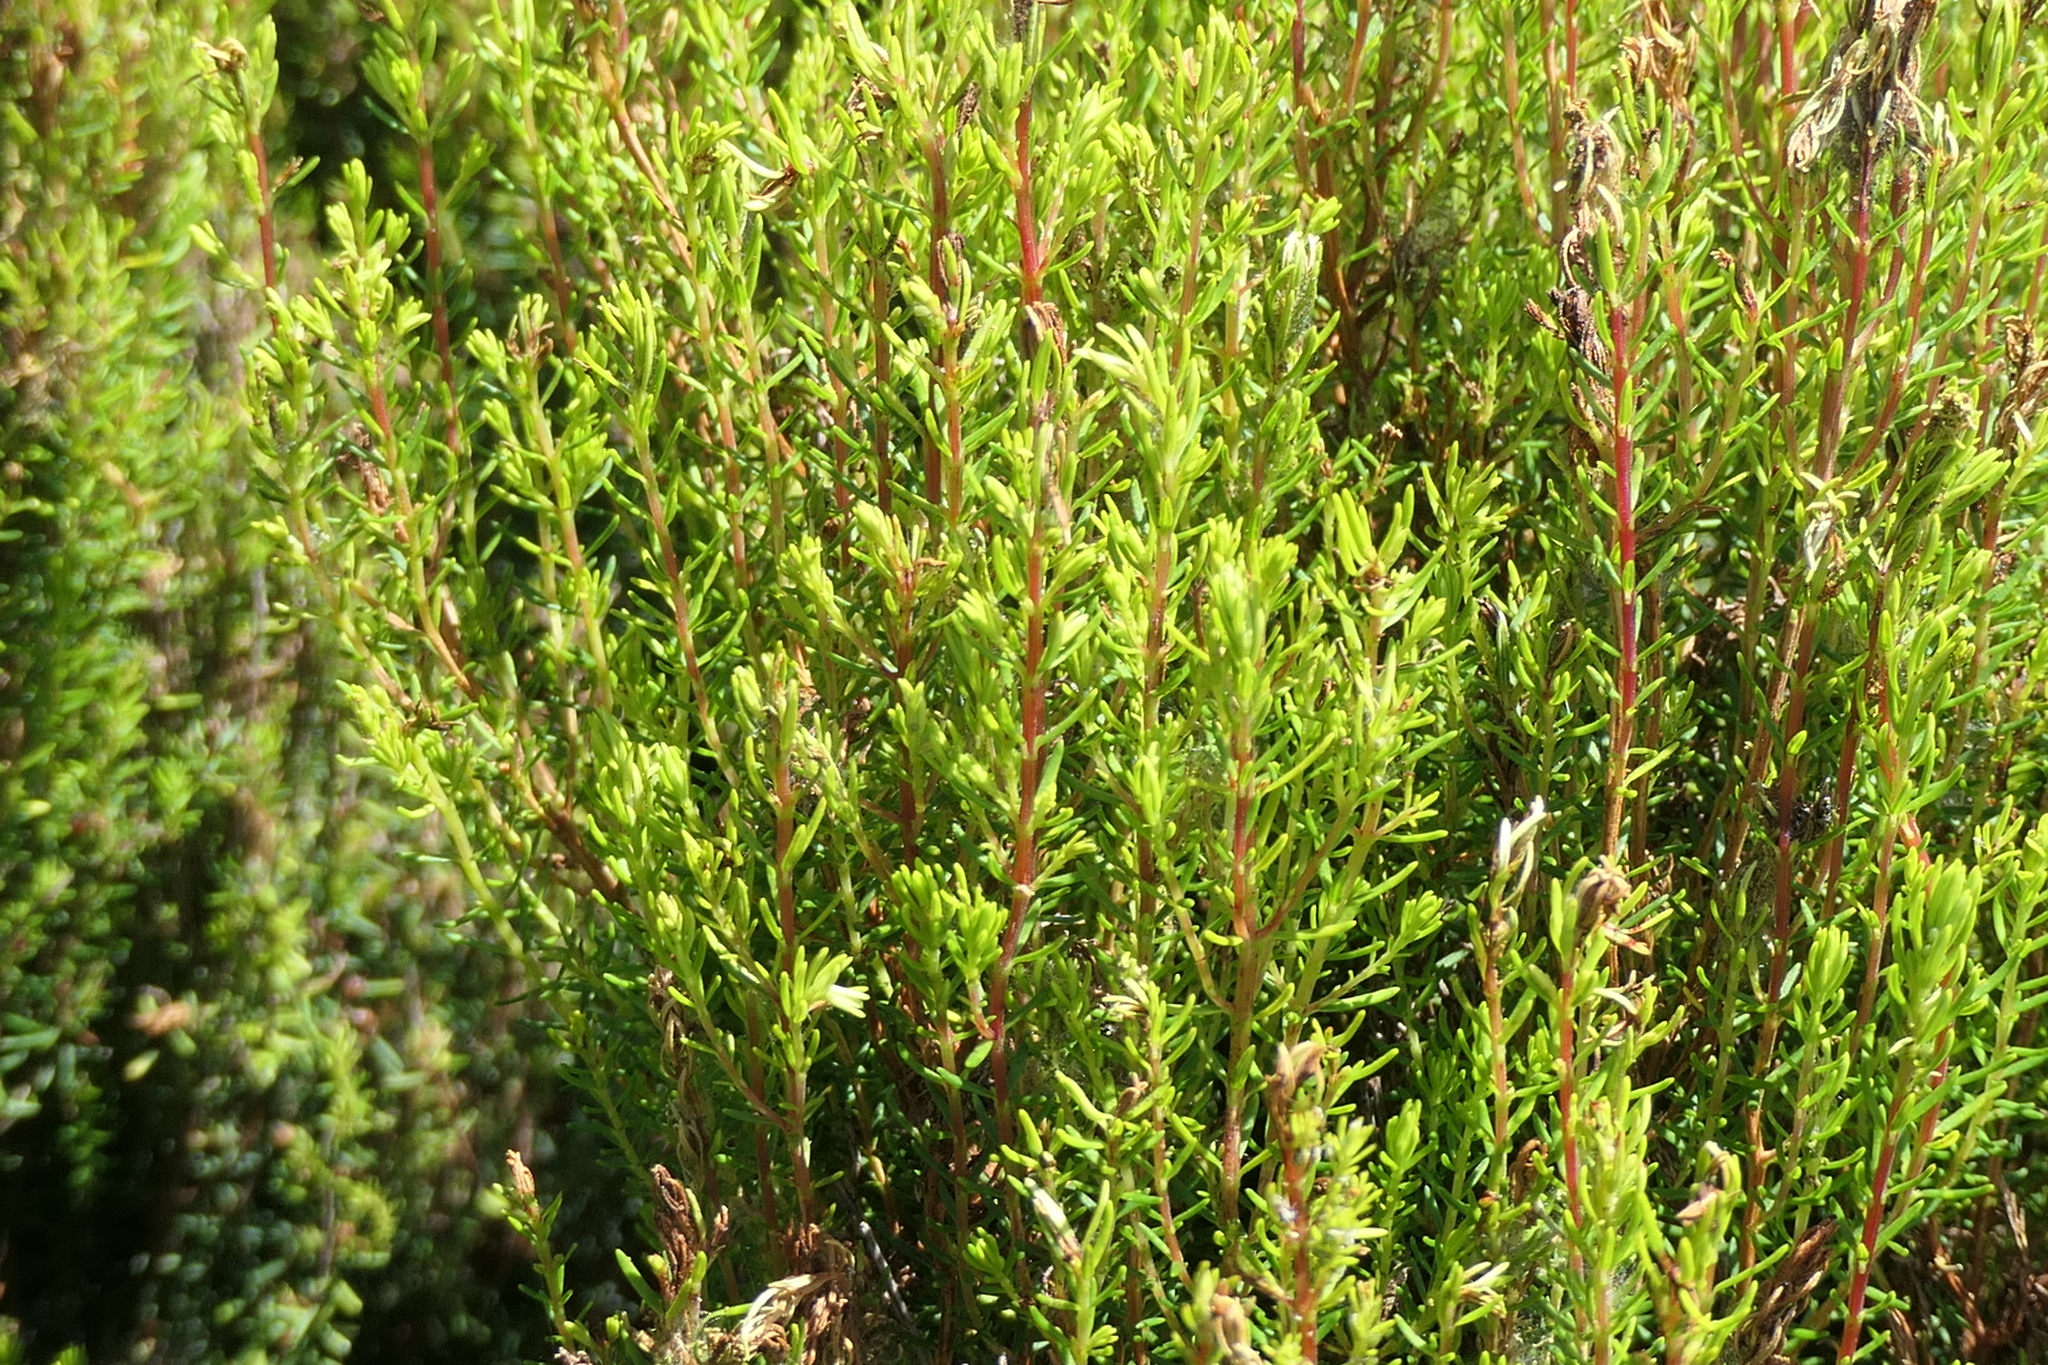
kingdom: Plantae
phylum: Tracheophyta
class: Magnoliopsida
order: Ericales
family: Ericaceae
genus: Erica
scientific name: Erica azorica
